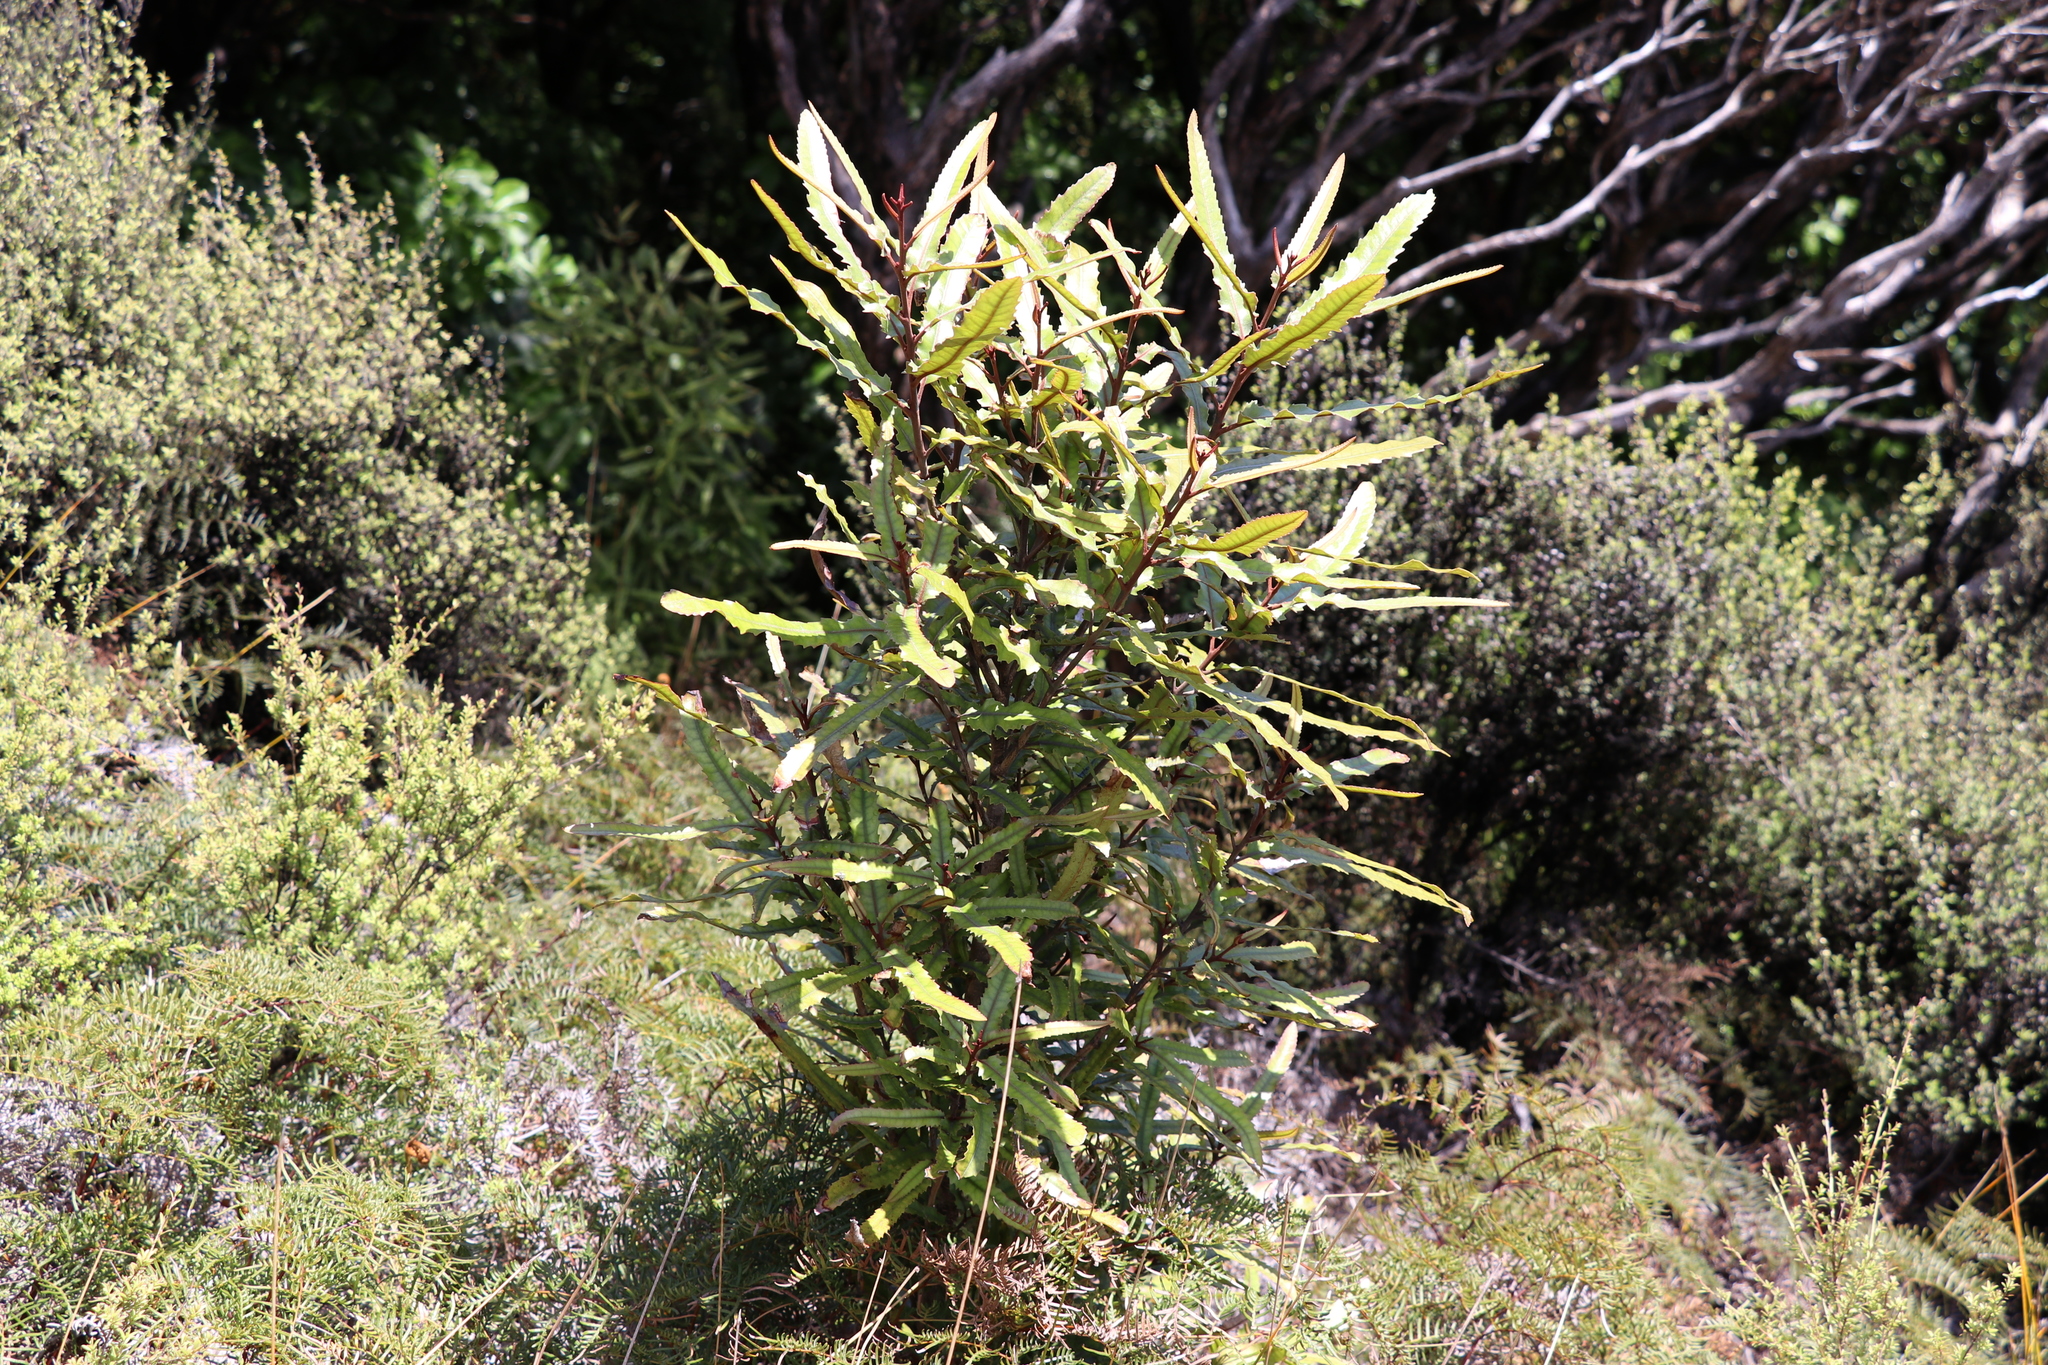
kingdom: Plantae
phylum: Tracheophyta
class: Magnoliopsida
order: Proteales
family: Proteaceae
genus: Knightia
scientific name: Knightia excelsa
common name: New zealand-honeysuckle
